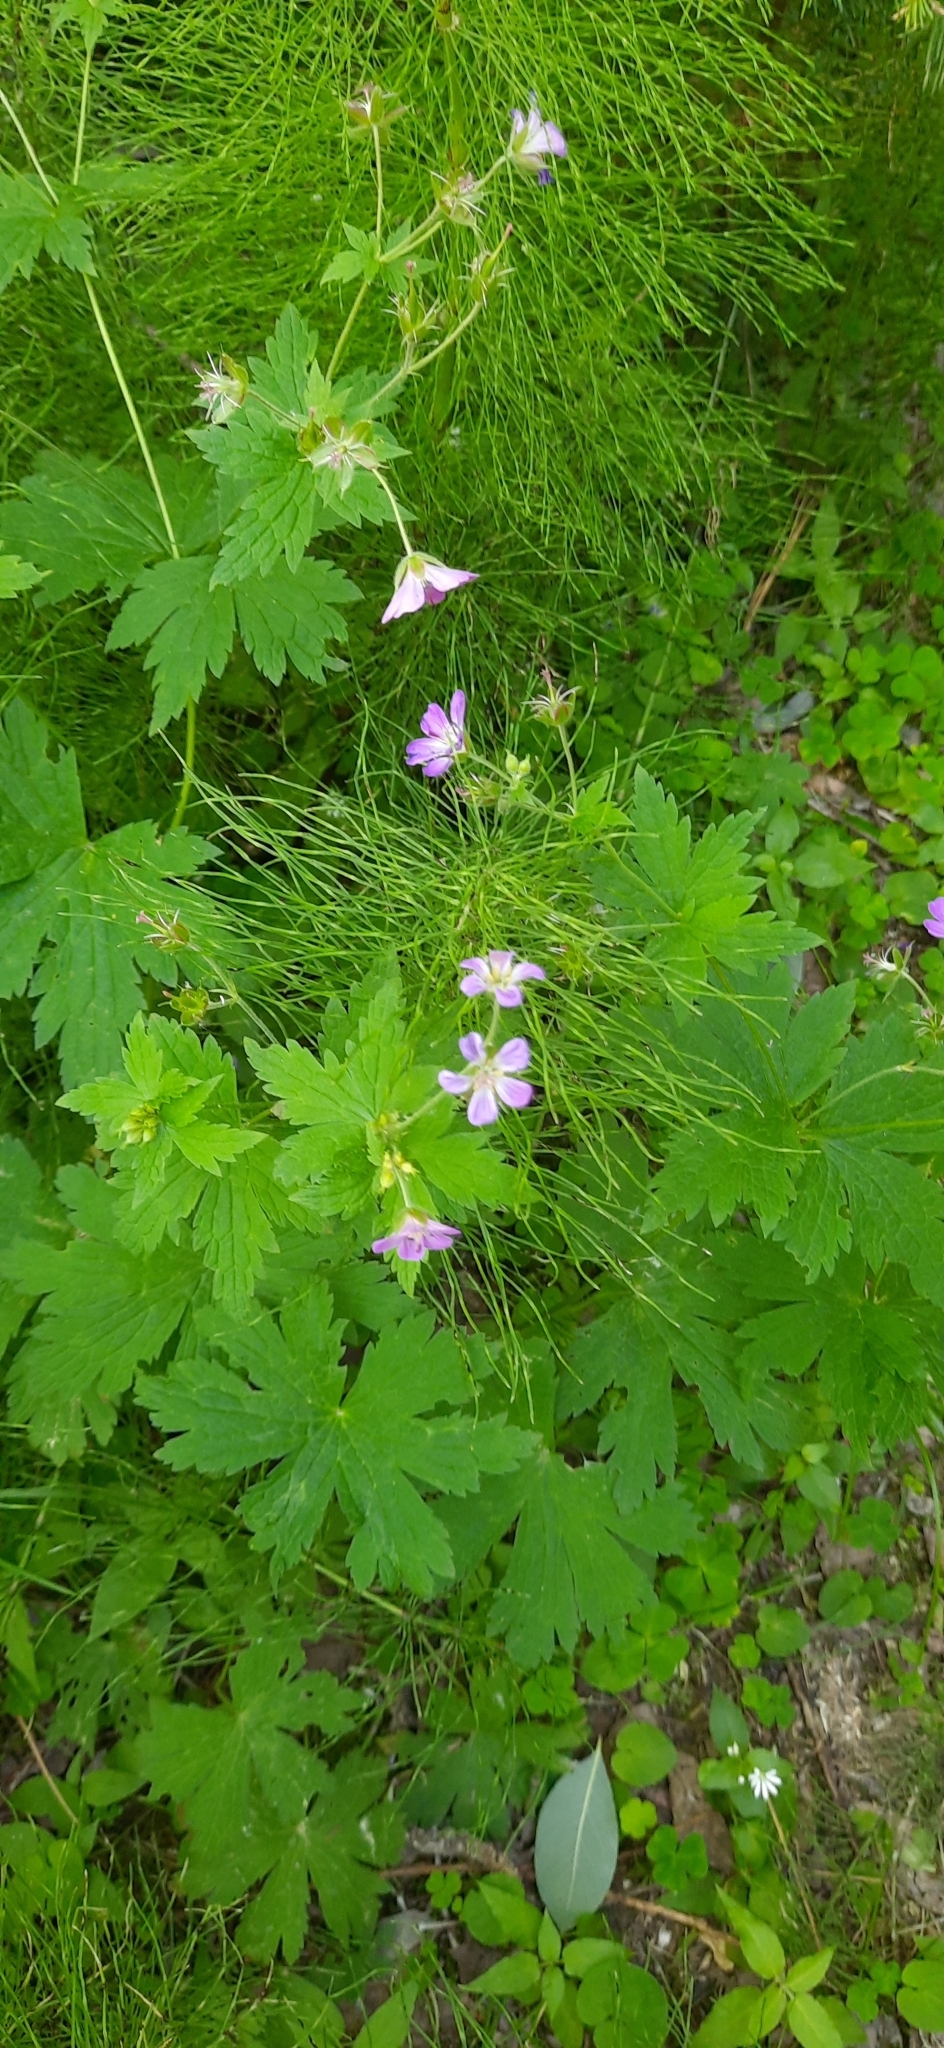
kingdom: Plantae
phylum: Tracheophyta
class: Magnoliopsida
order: Geraniales
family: Geraniaceae
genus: Geranium
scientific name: Geranium sylvaticum
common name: Wood crane's-bill
